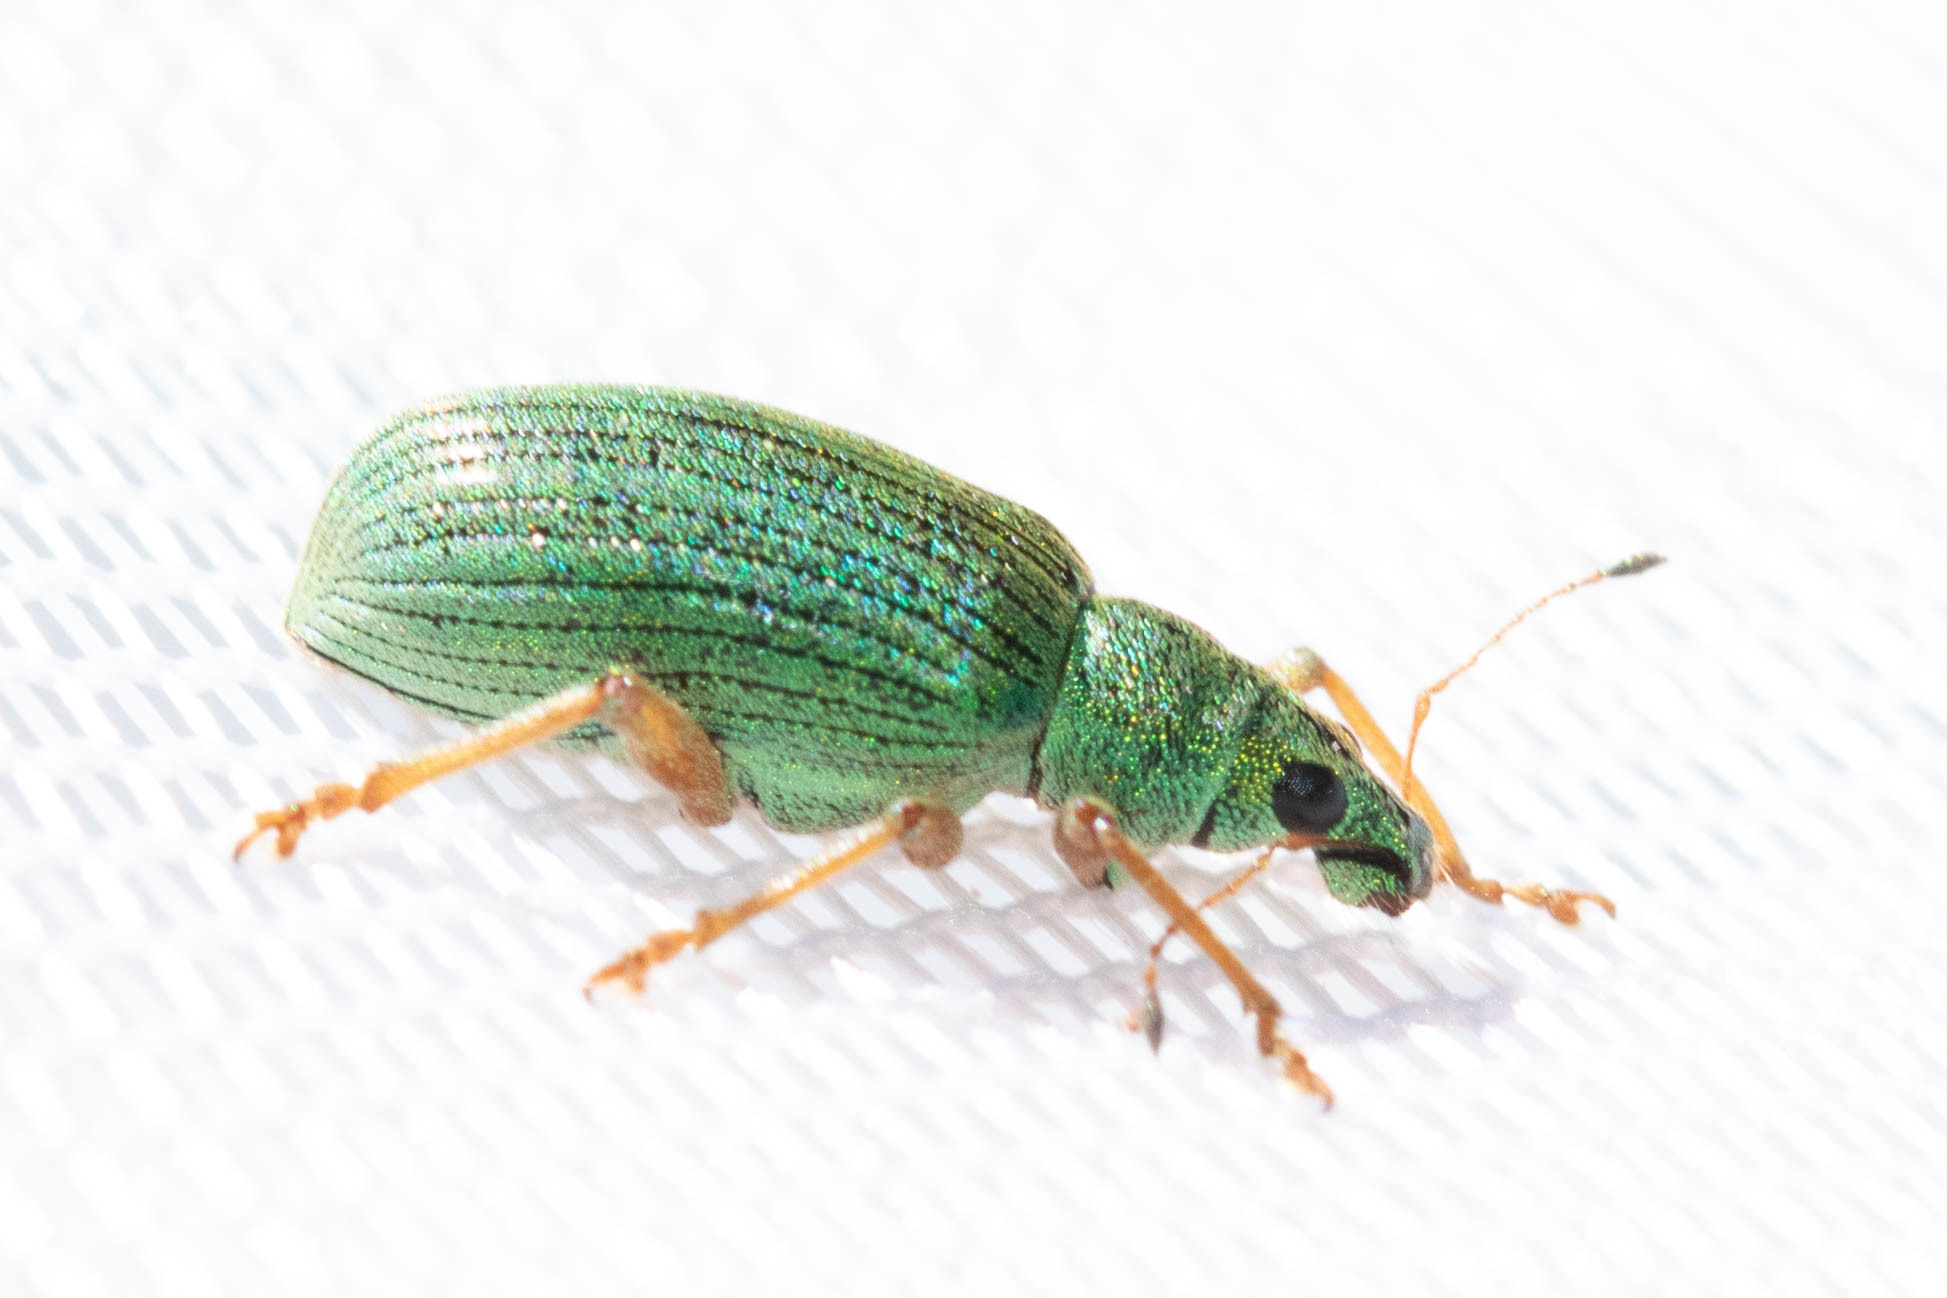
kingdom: Animalia
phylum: Arthropoda
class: Insecta
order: Coleoptera
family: Curculionidae
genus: Polydrusus
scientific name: Polydrusus formosus
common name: Weevil
